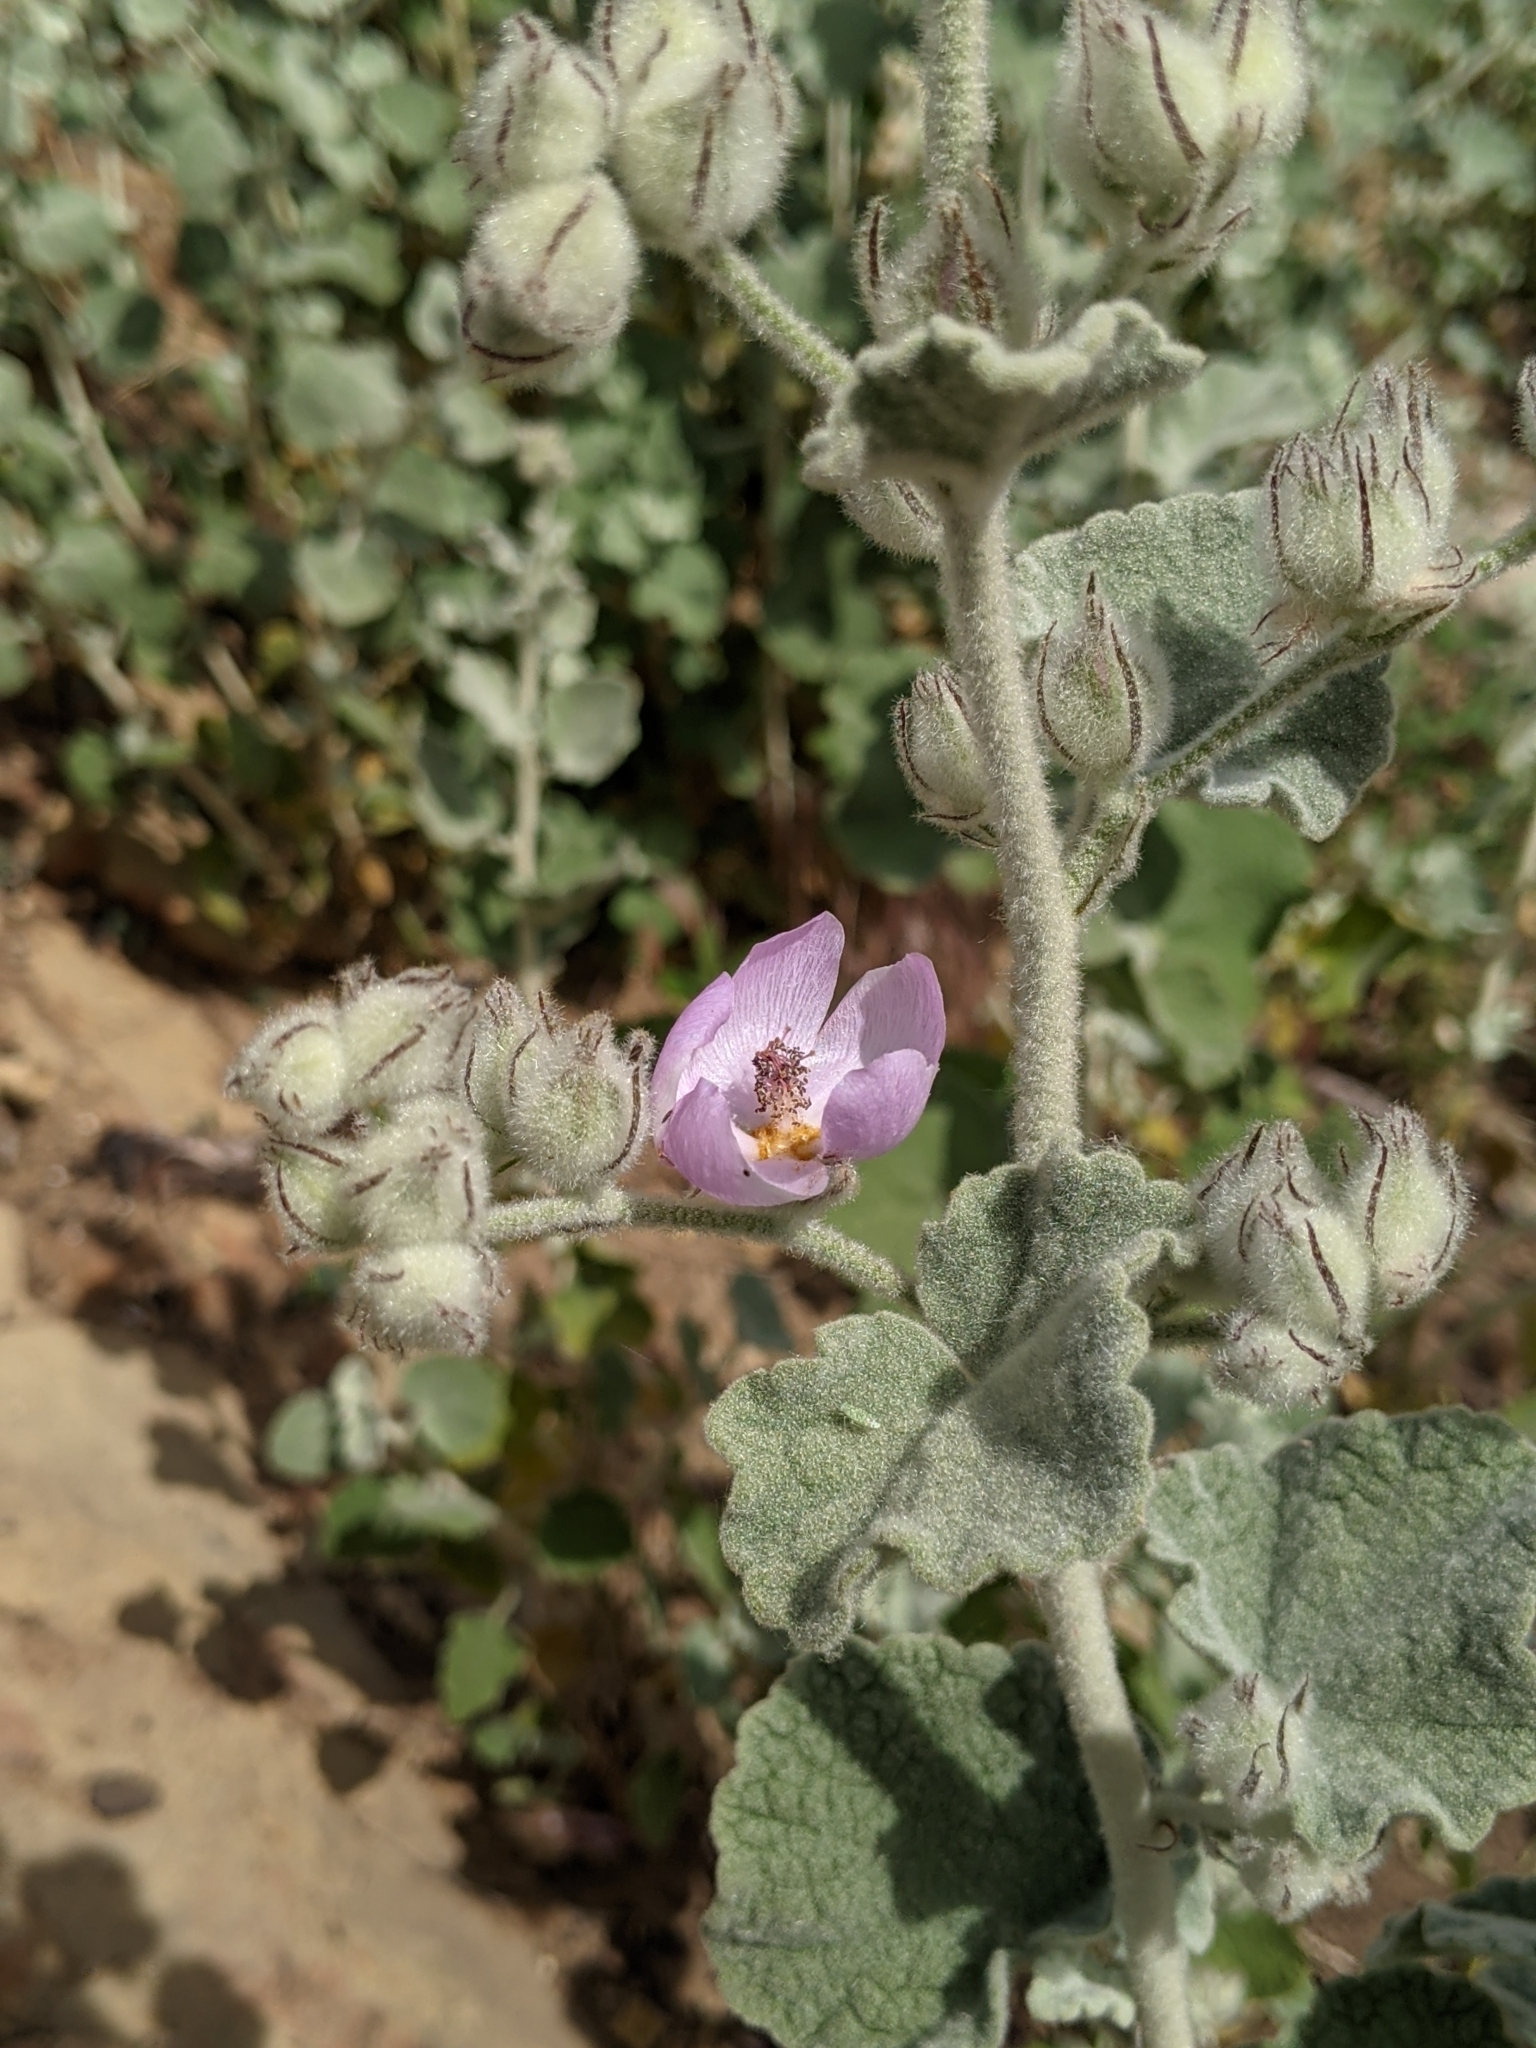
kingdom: Plantae
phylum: Tracheophyta
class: Magnoliopsida
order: Malvales
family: Malvaceae
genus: Malacothamnus
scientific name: Malacothamnus fremontii
